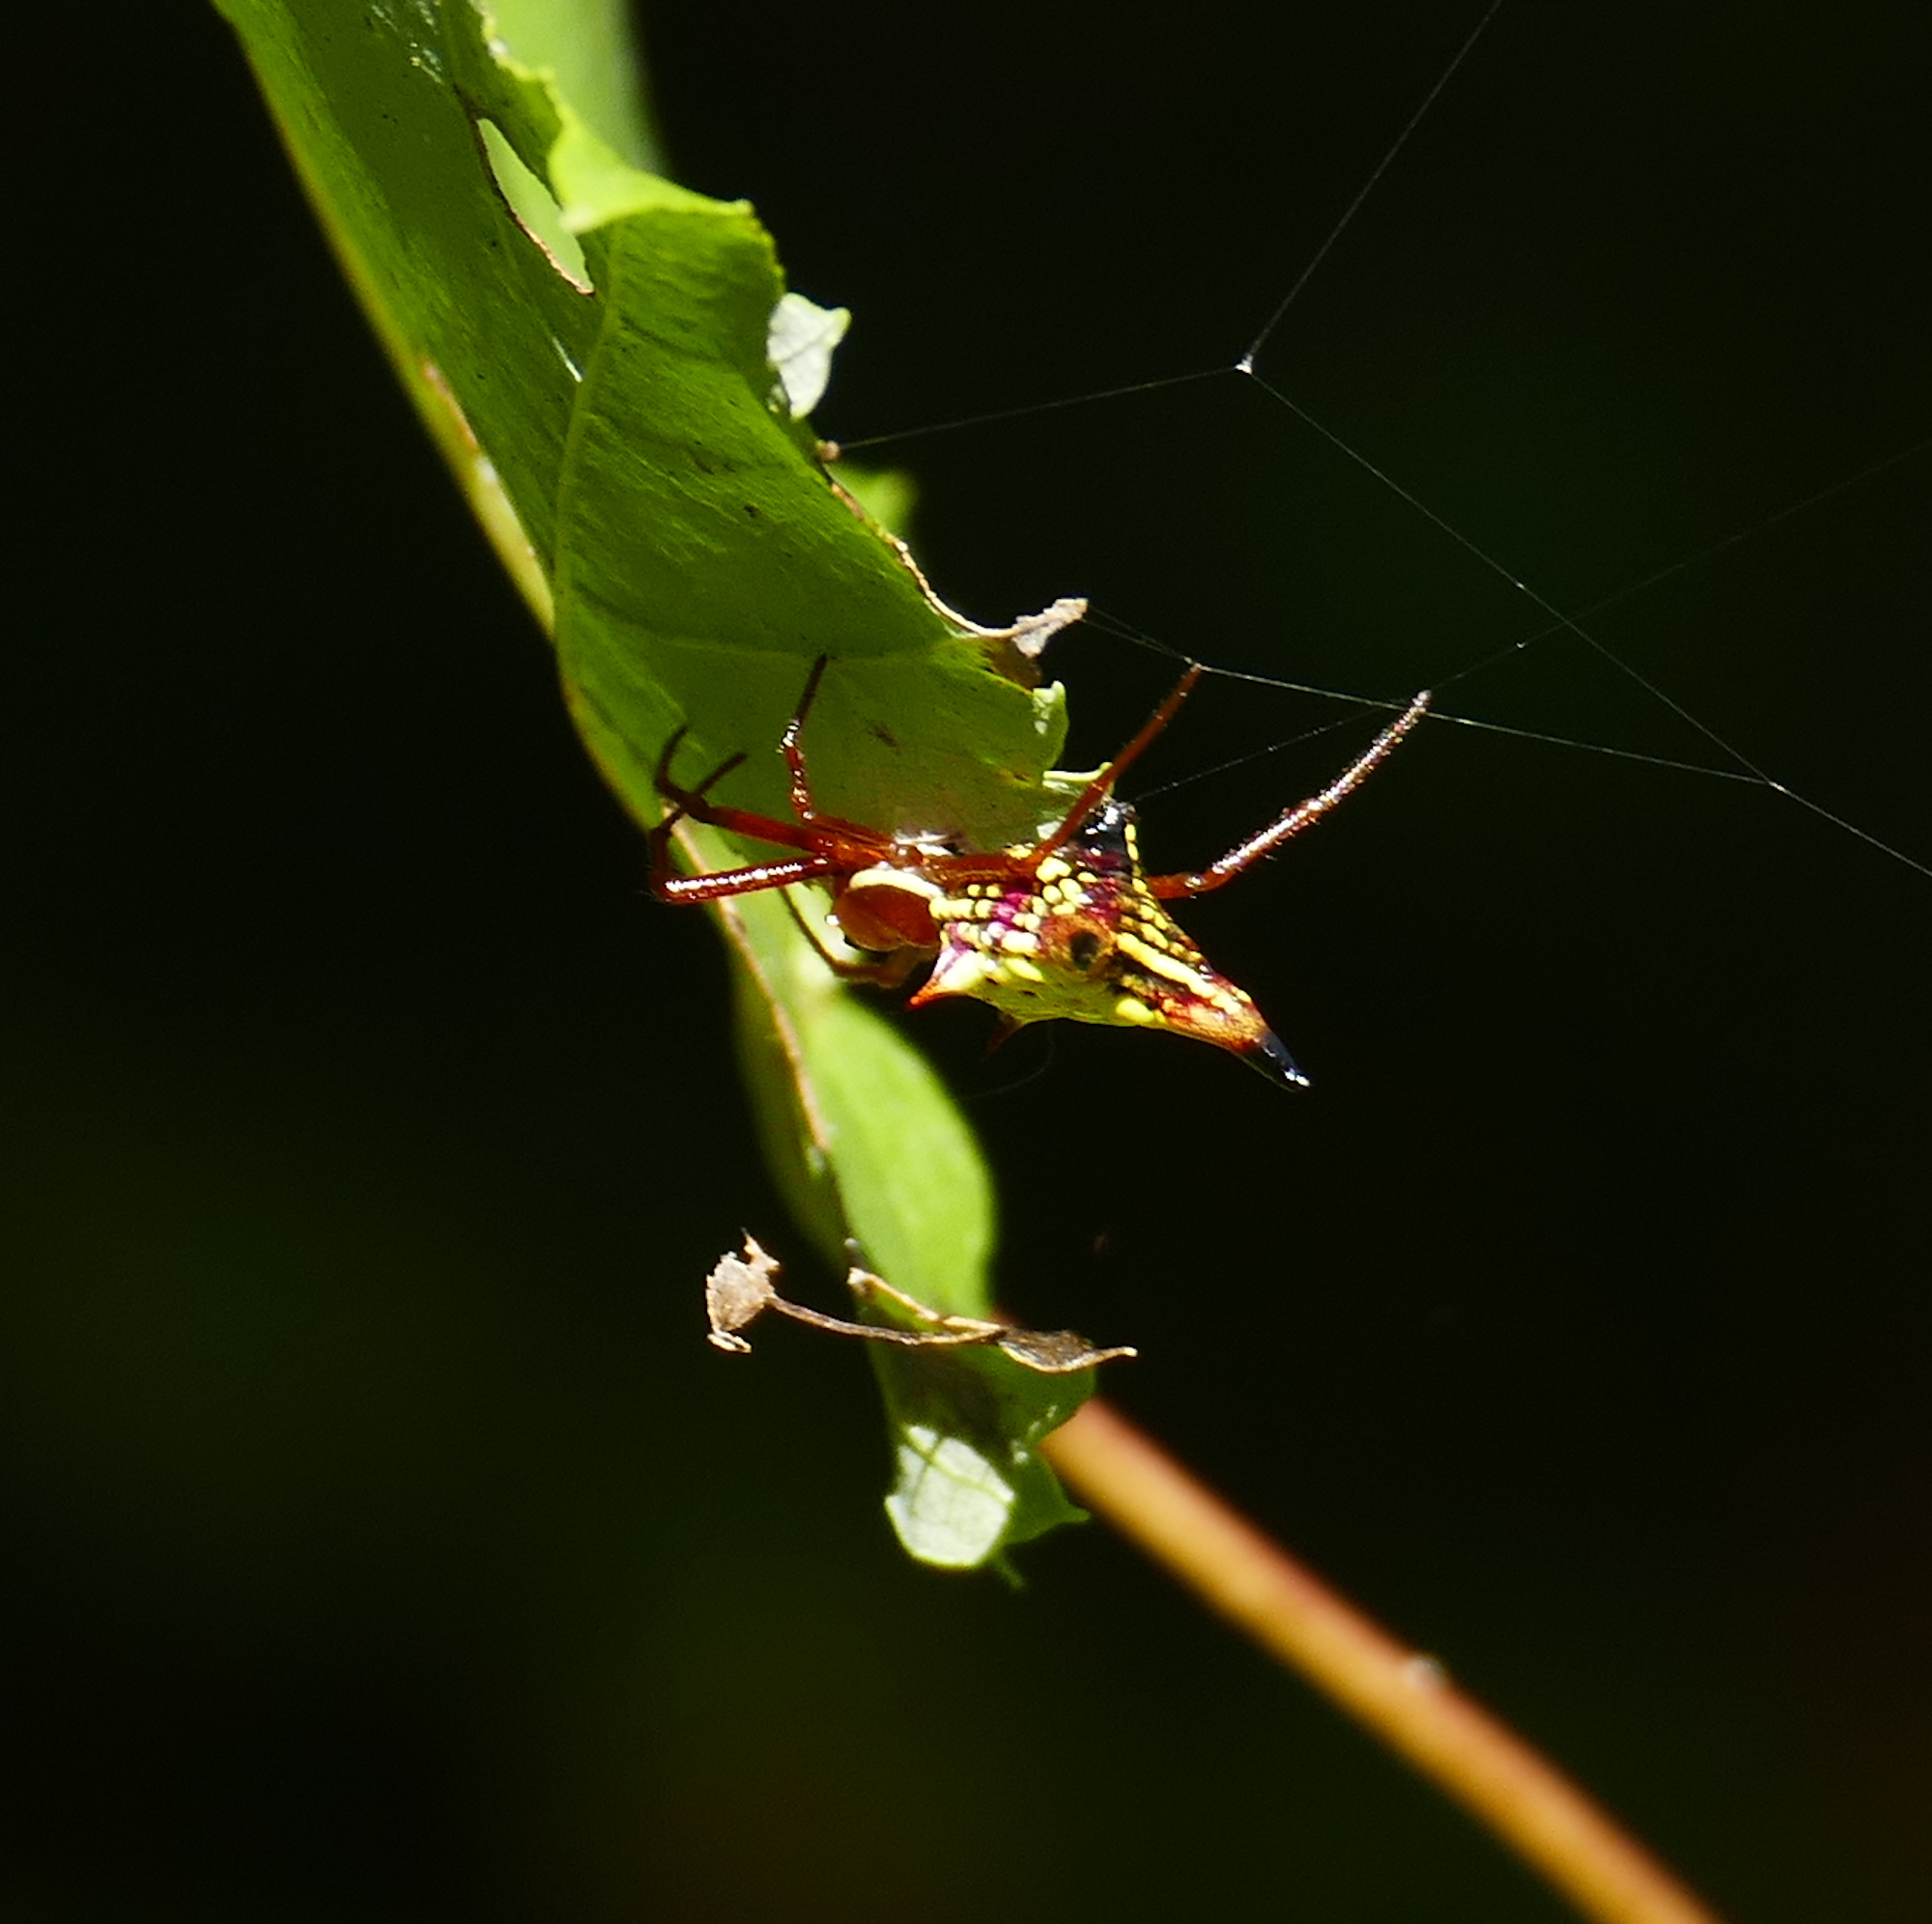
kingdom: Animalia
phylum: Arthropoda
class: Arachnida
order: Araneae
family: Araneidae
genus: Micrathena
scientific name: Micrathena sagittata
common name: Orb weavers
